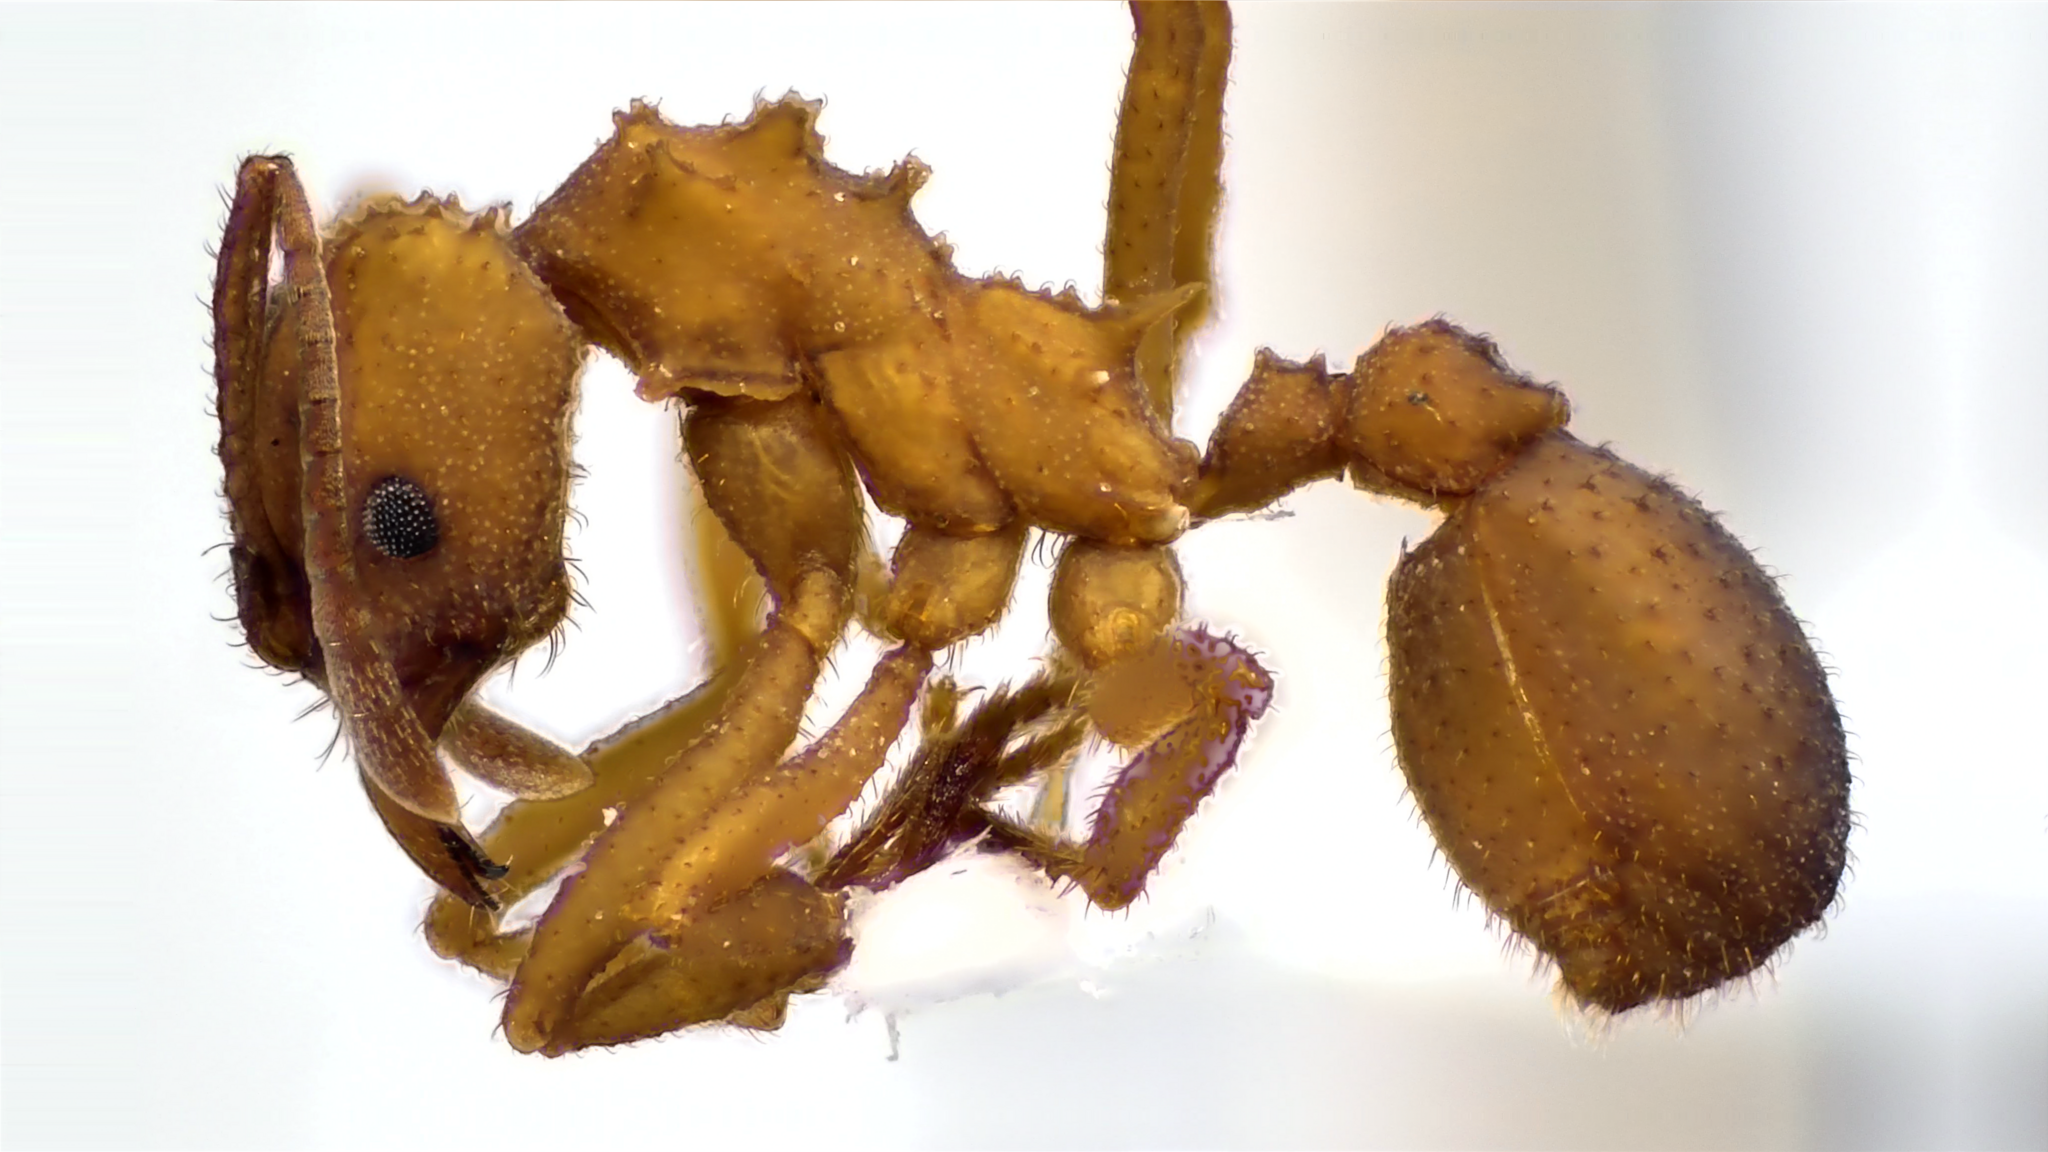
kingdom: Animalia
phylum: Arthropoda
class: Insecta
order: Hymenoptera
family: Formicidae
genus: Trachymyrmex
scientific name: Trachymyrmex septentrionalis
